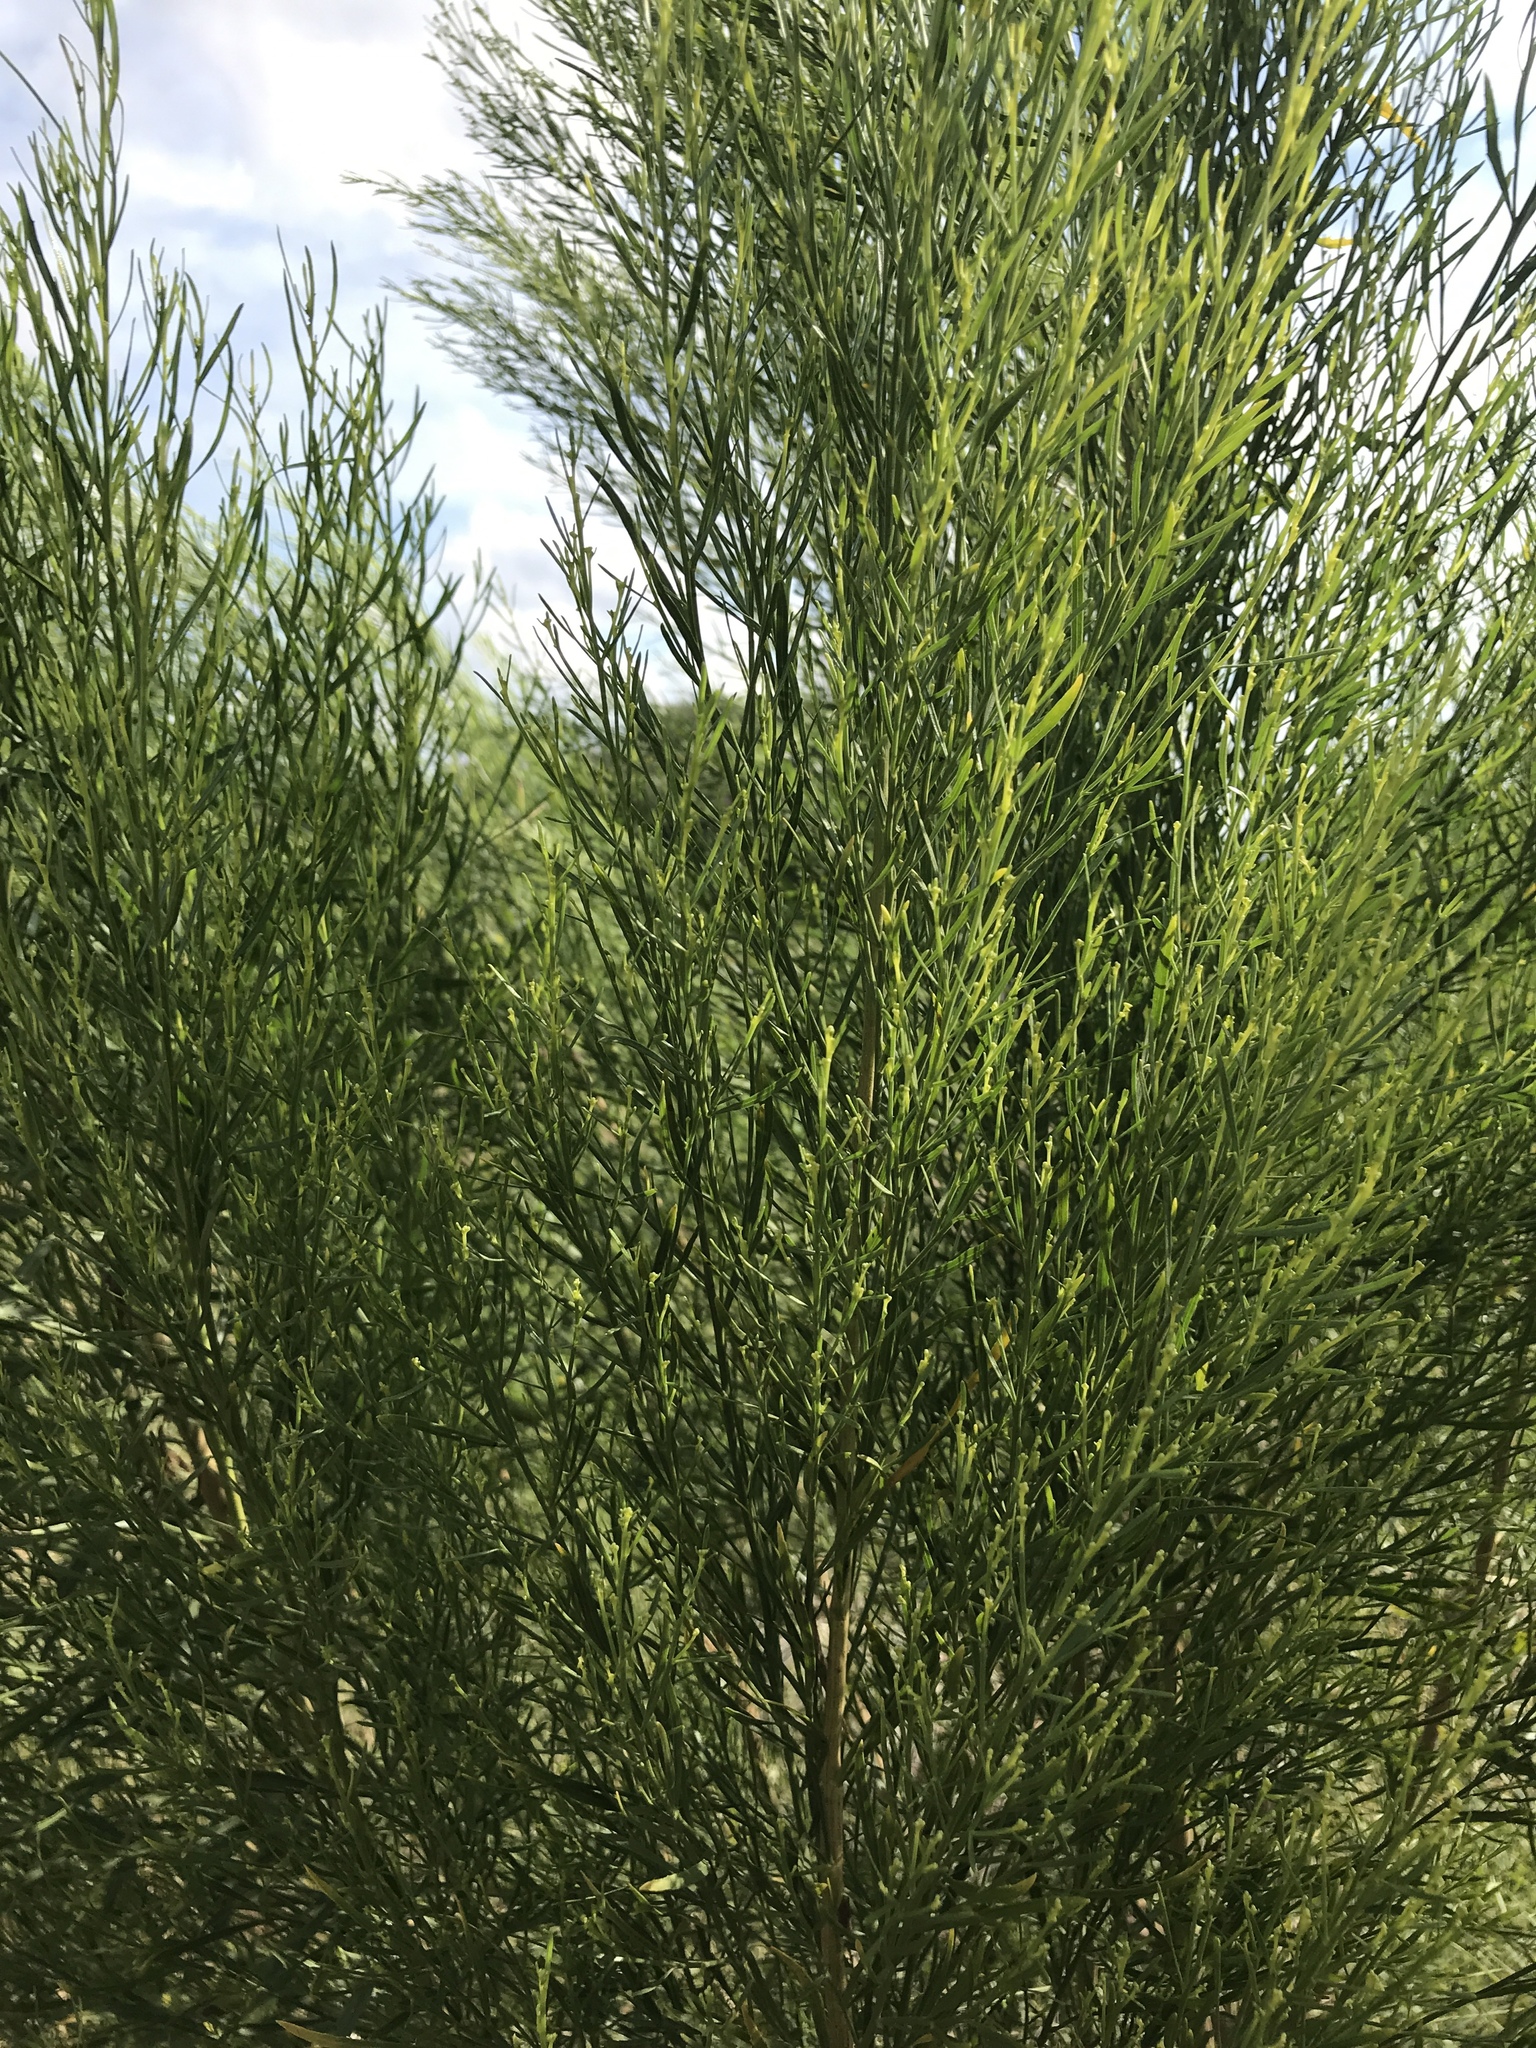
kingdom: Plantae
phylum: Tracheophyta
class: Magnoliopsida
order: Asterales
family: Asteraceae
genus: Baccharis
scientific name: Baccharis neglecta
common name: Roosevelt-weed
